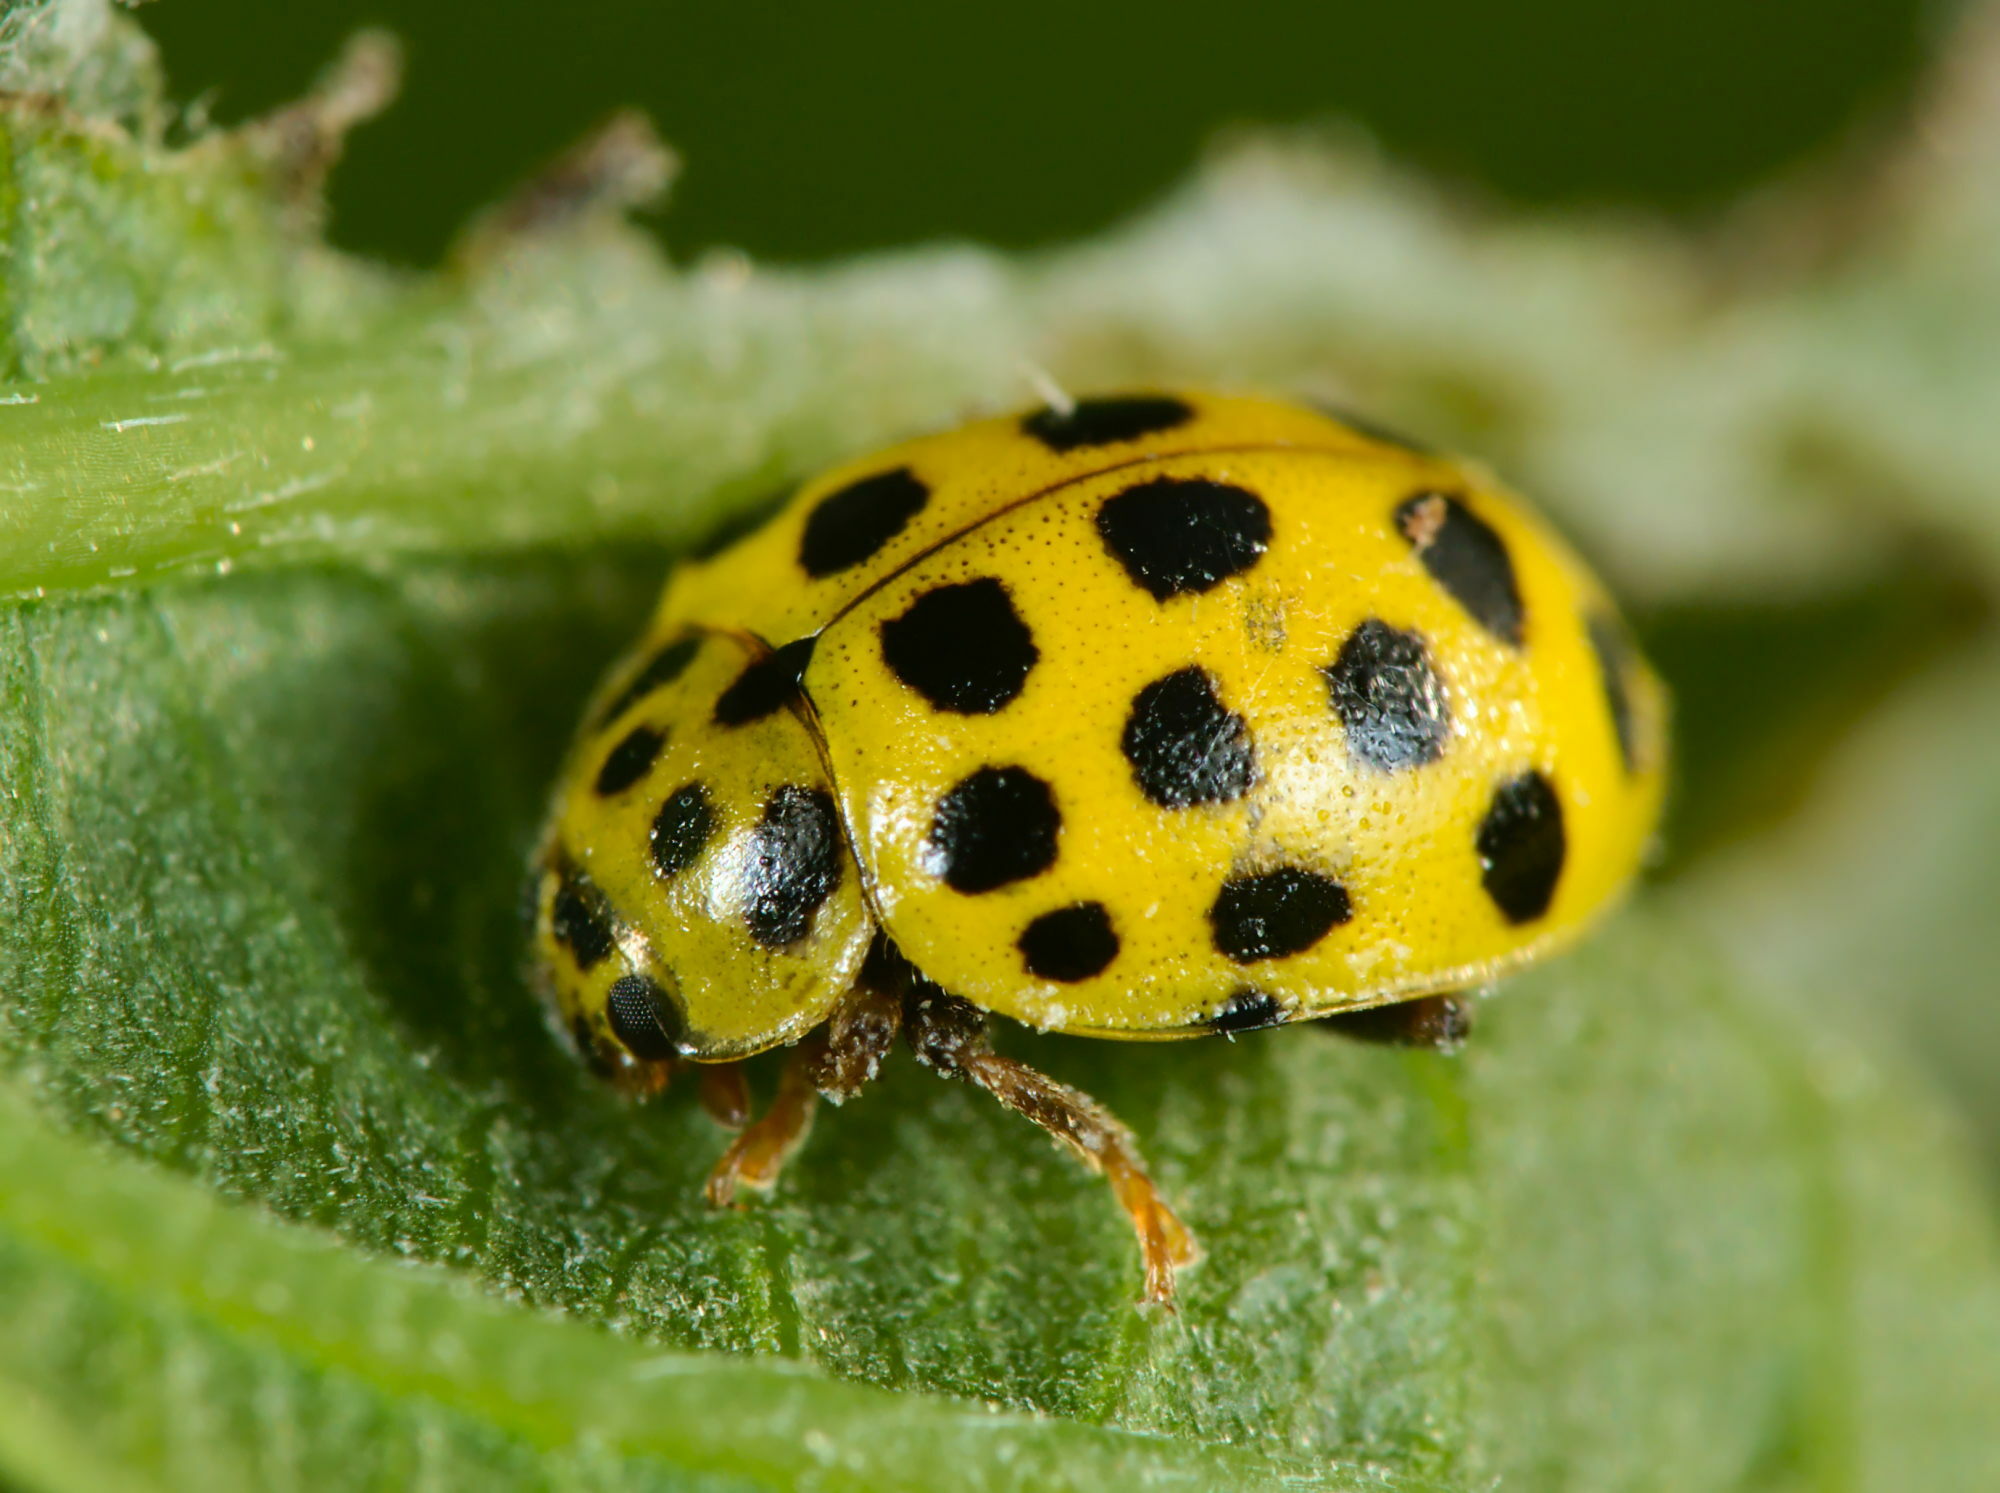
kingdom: Animalia
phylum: Arthropoda
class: Insecta
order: Coleoptera
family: Coccinellidae
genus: Psyllobora
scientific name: Psyllobora vigintiduopunctata
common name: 22-spot ladybird
